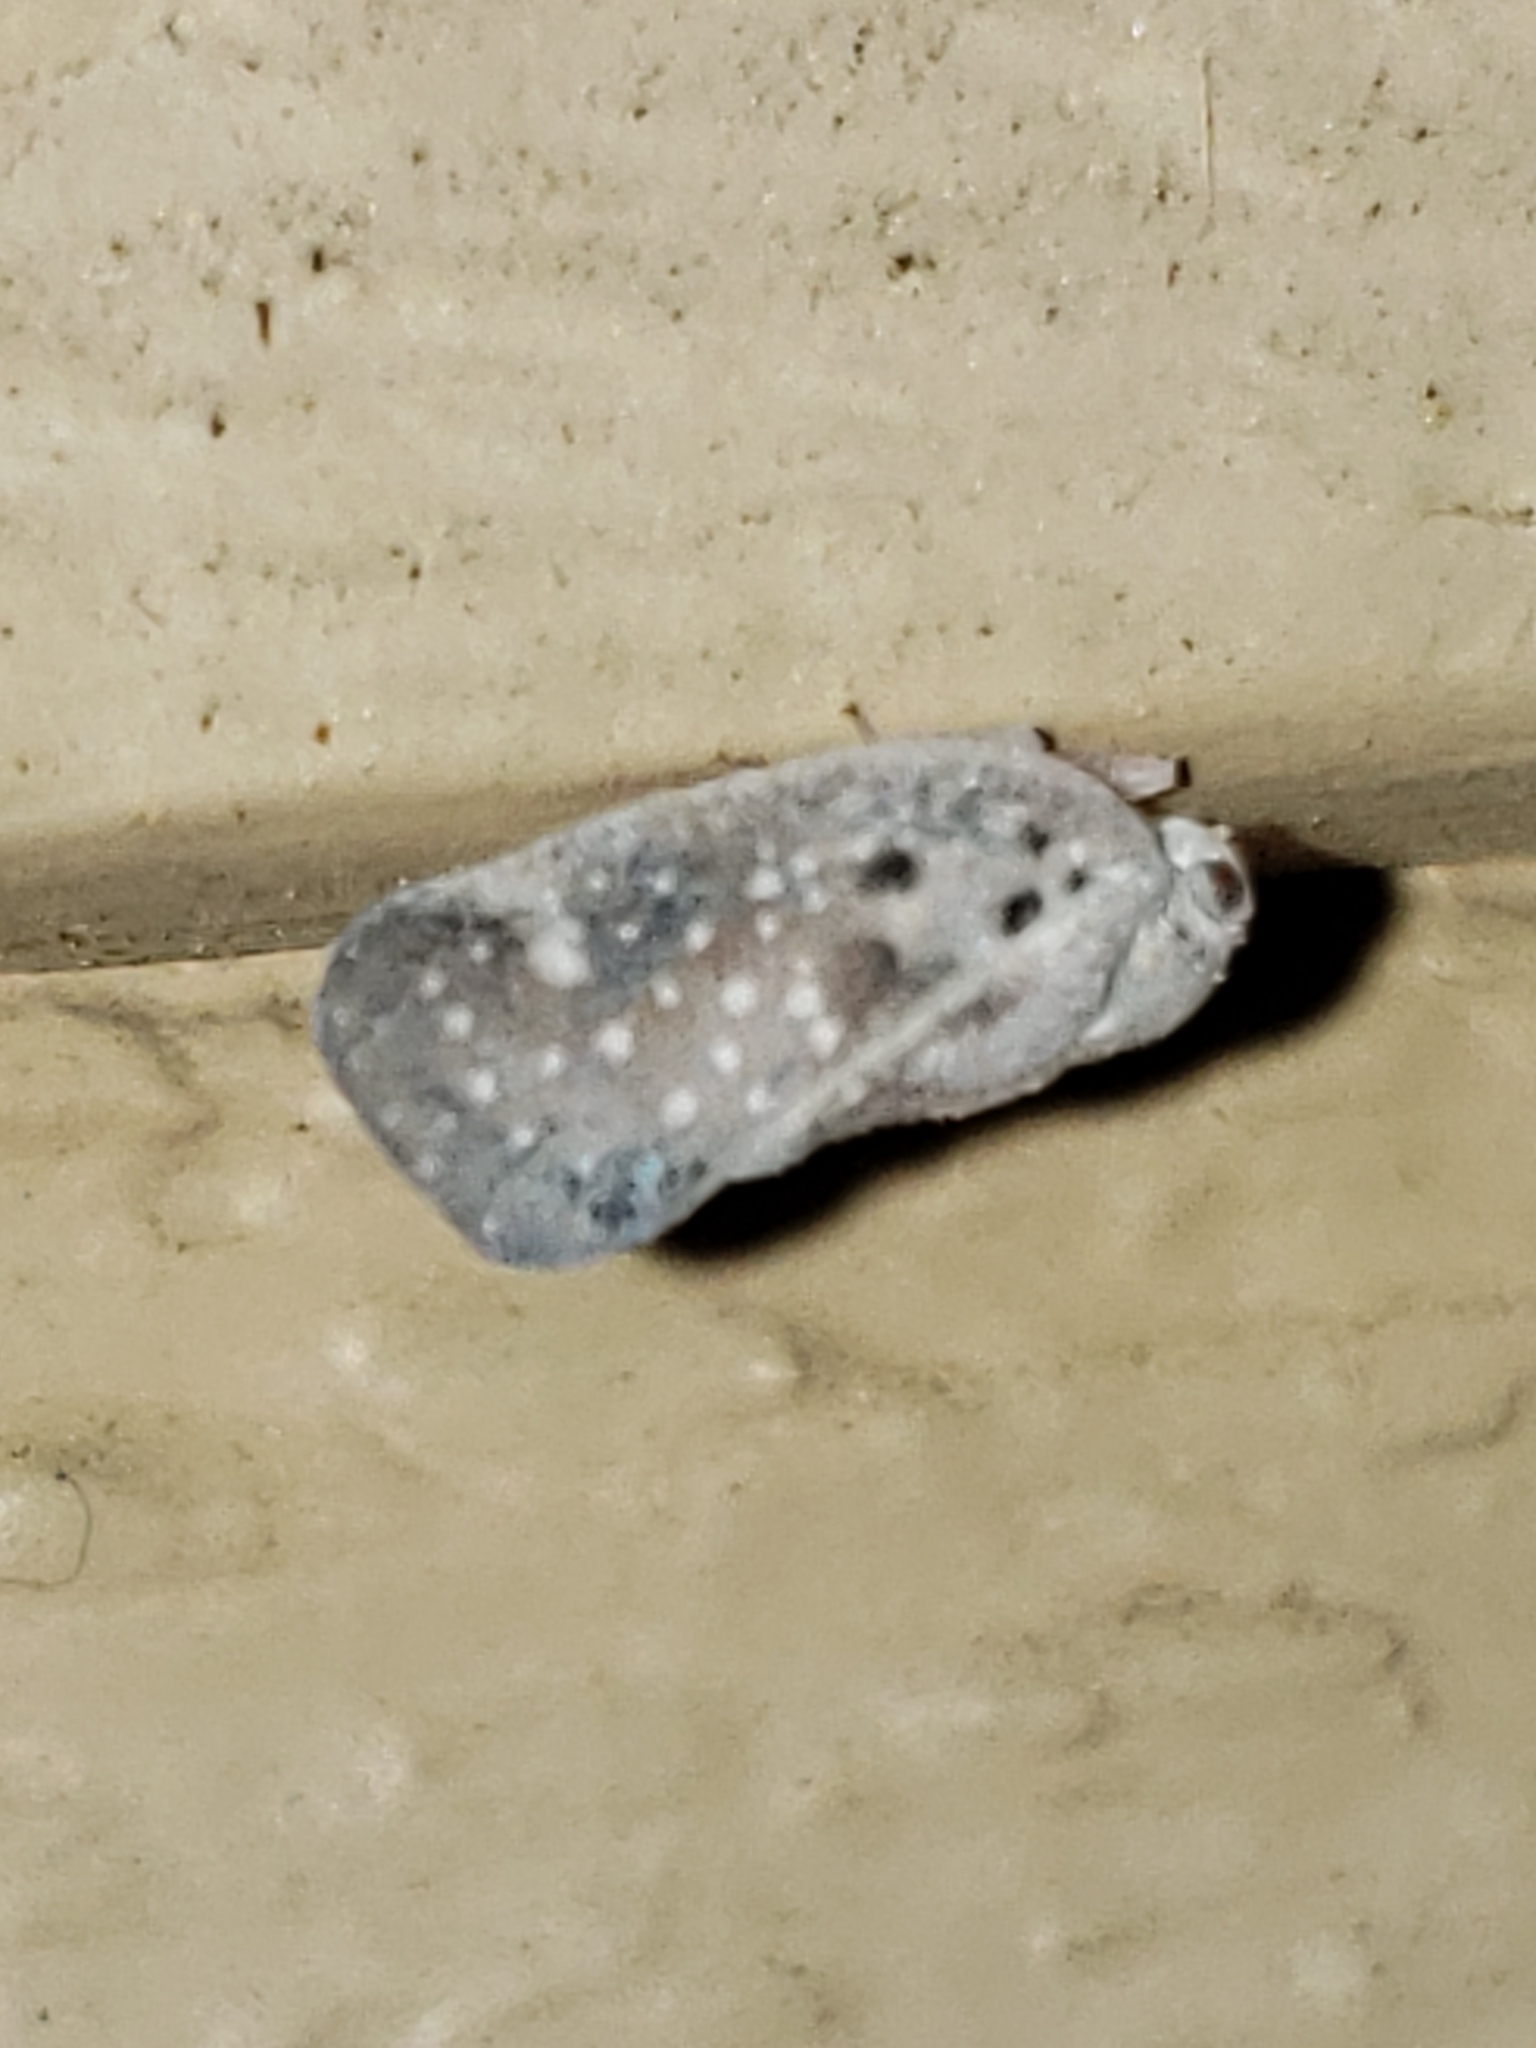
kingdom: Animalia
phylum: Arthropoda
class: Insecta
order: Hemiptera
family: Flatidae
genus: Metcalfa
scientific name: Metcalfa pruinosa
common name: Citrus flatid planthopper
